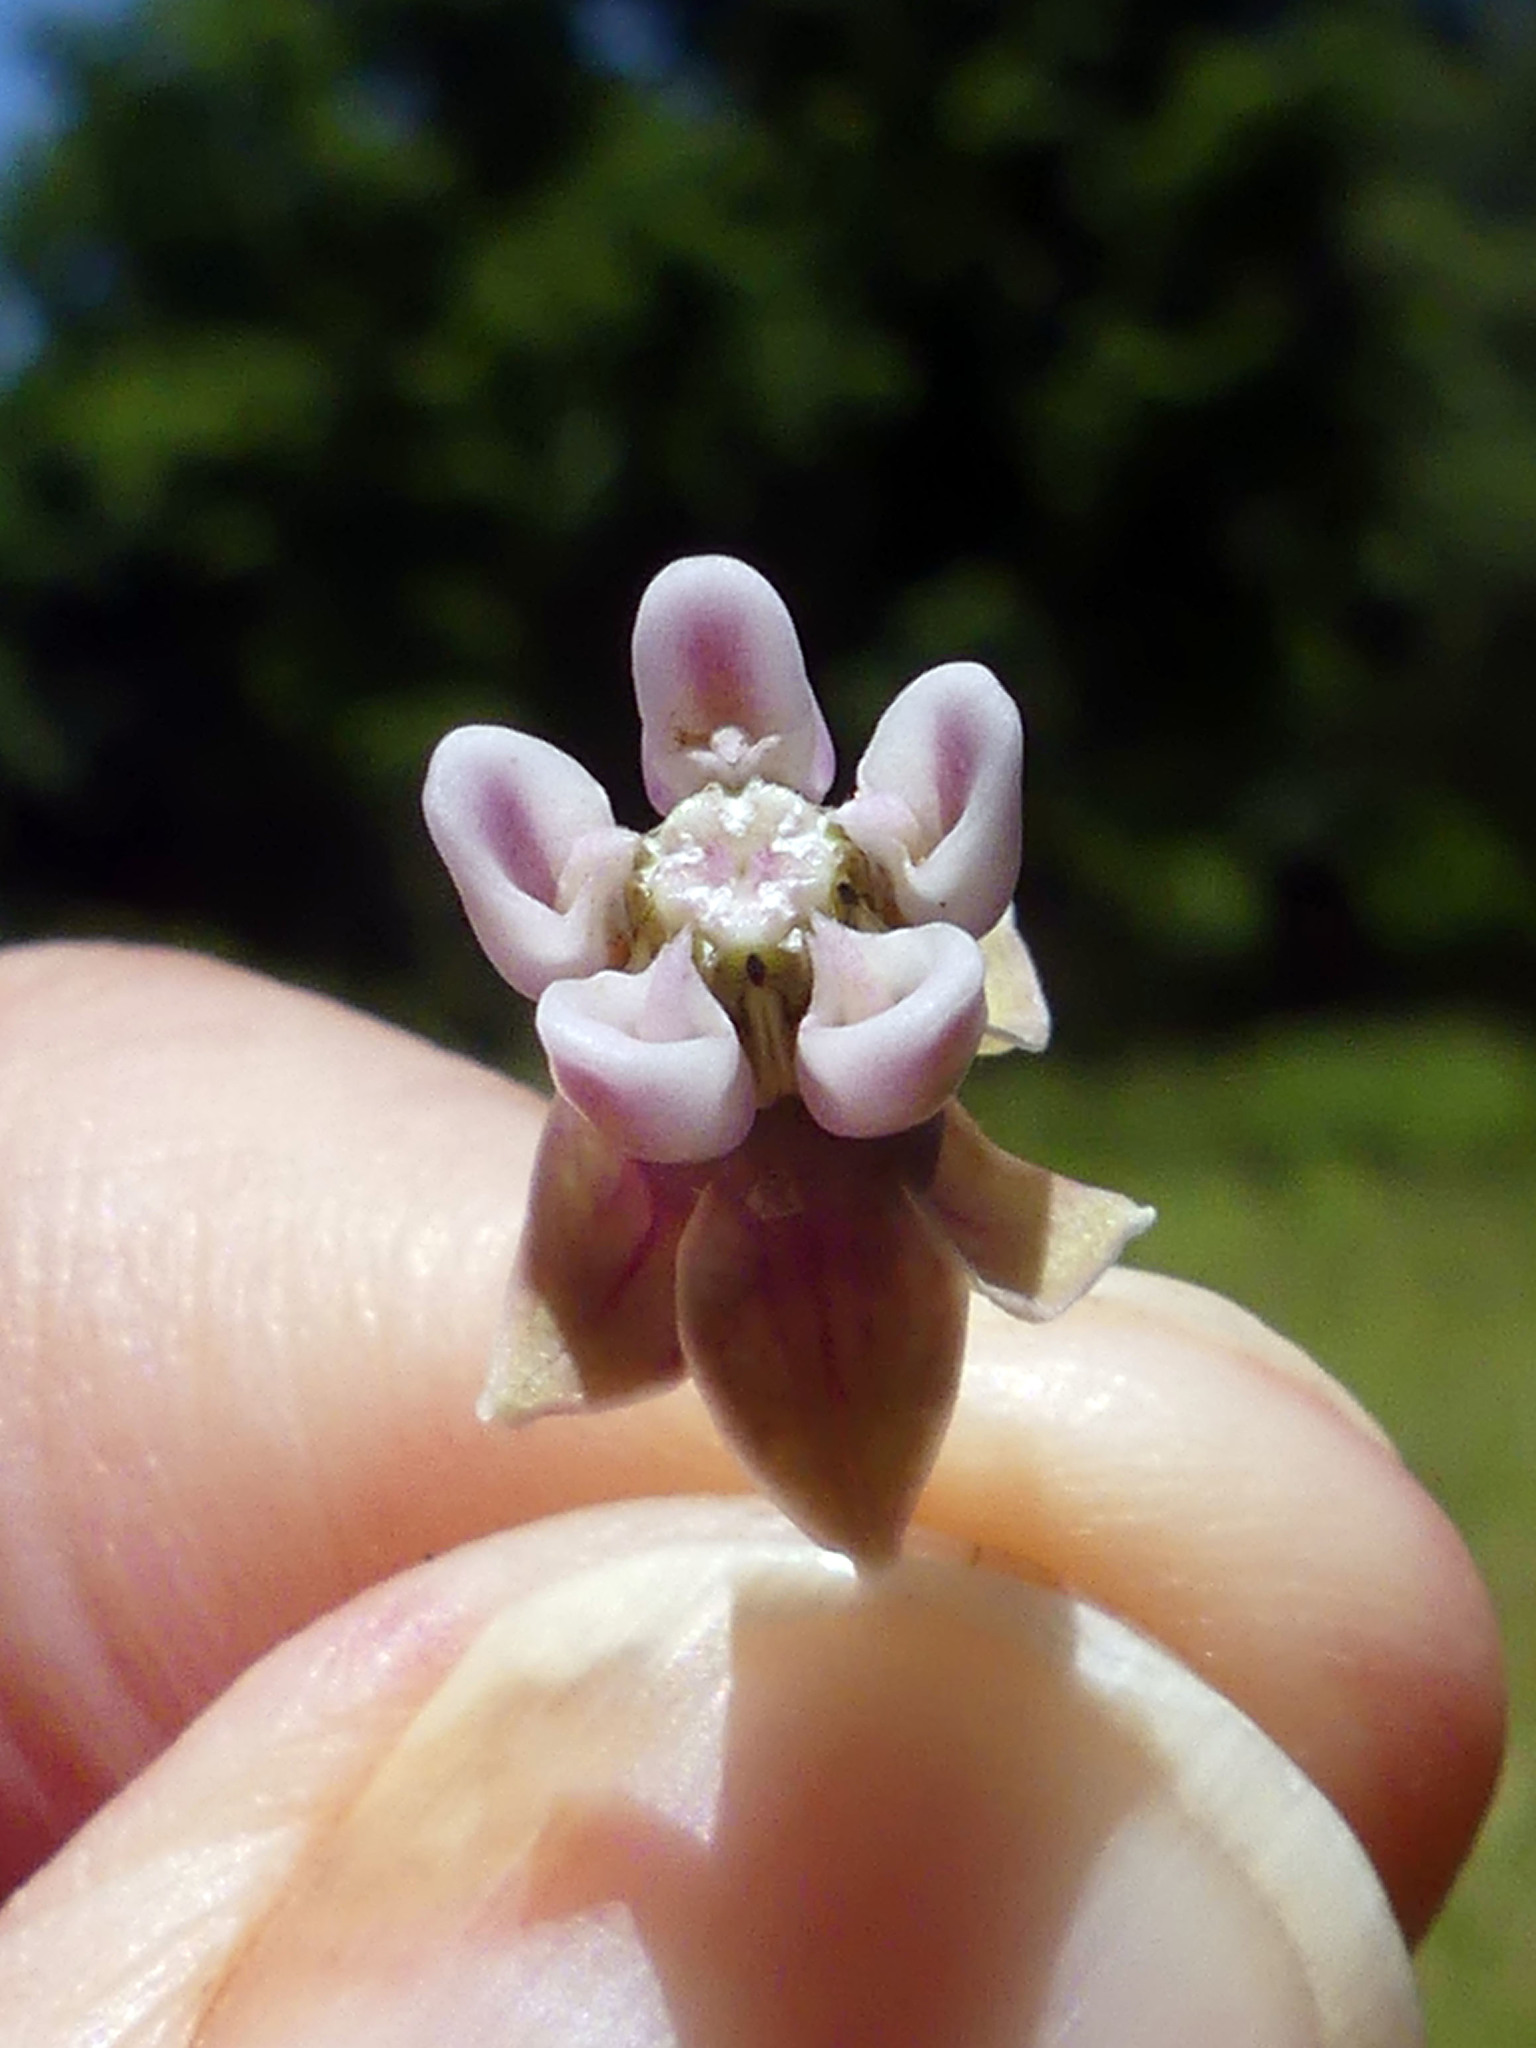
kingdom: Plantae
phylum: Tracheophyta
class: Magnoliopsida
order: Gentianales
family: Apocynaceae
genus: Asclepias
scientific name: Asclepias syriaca
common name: Common milkweed
